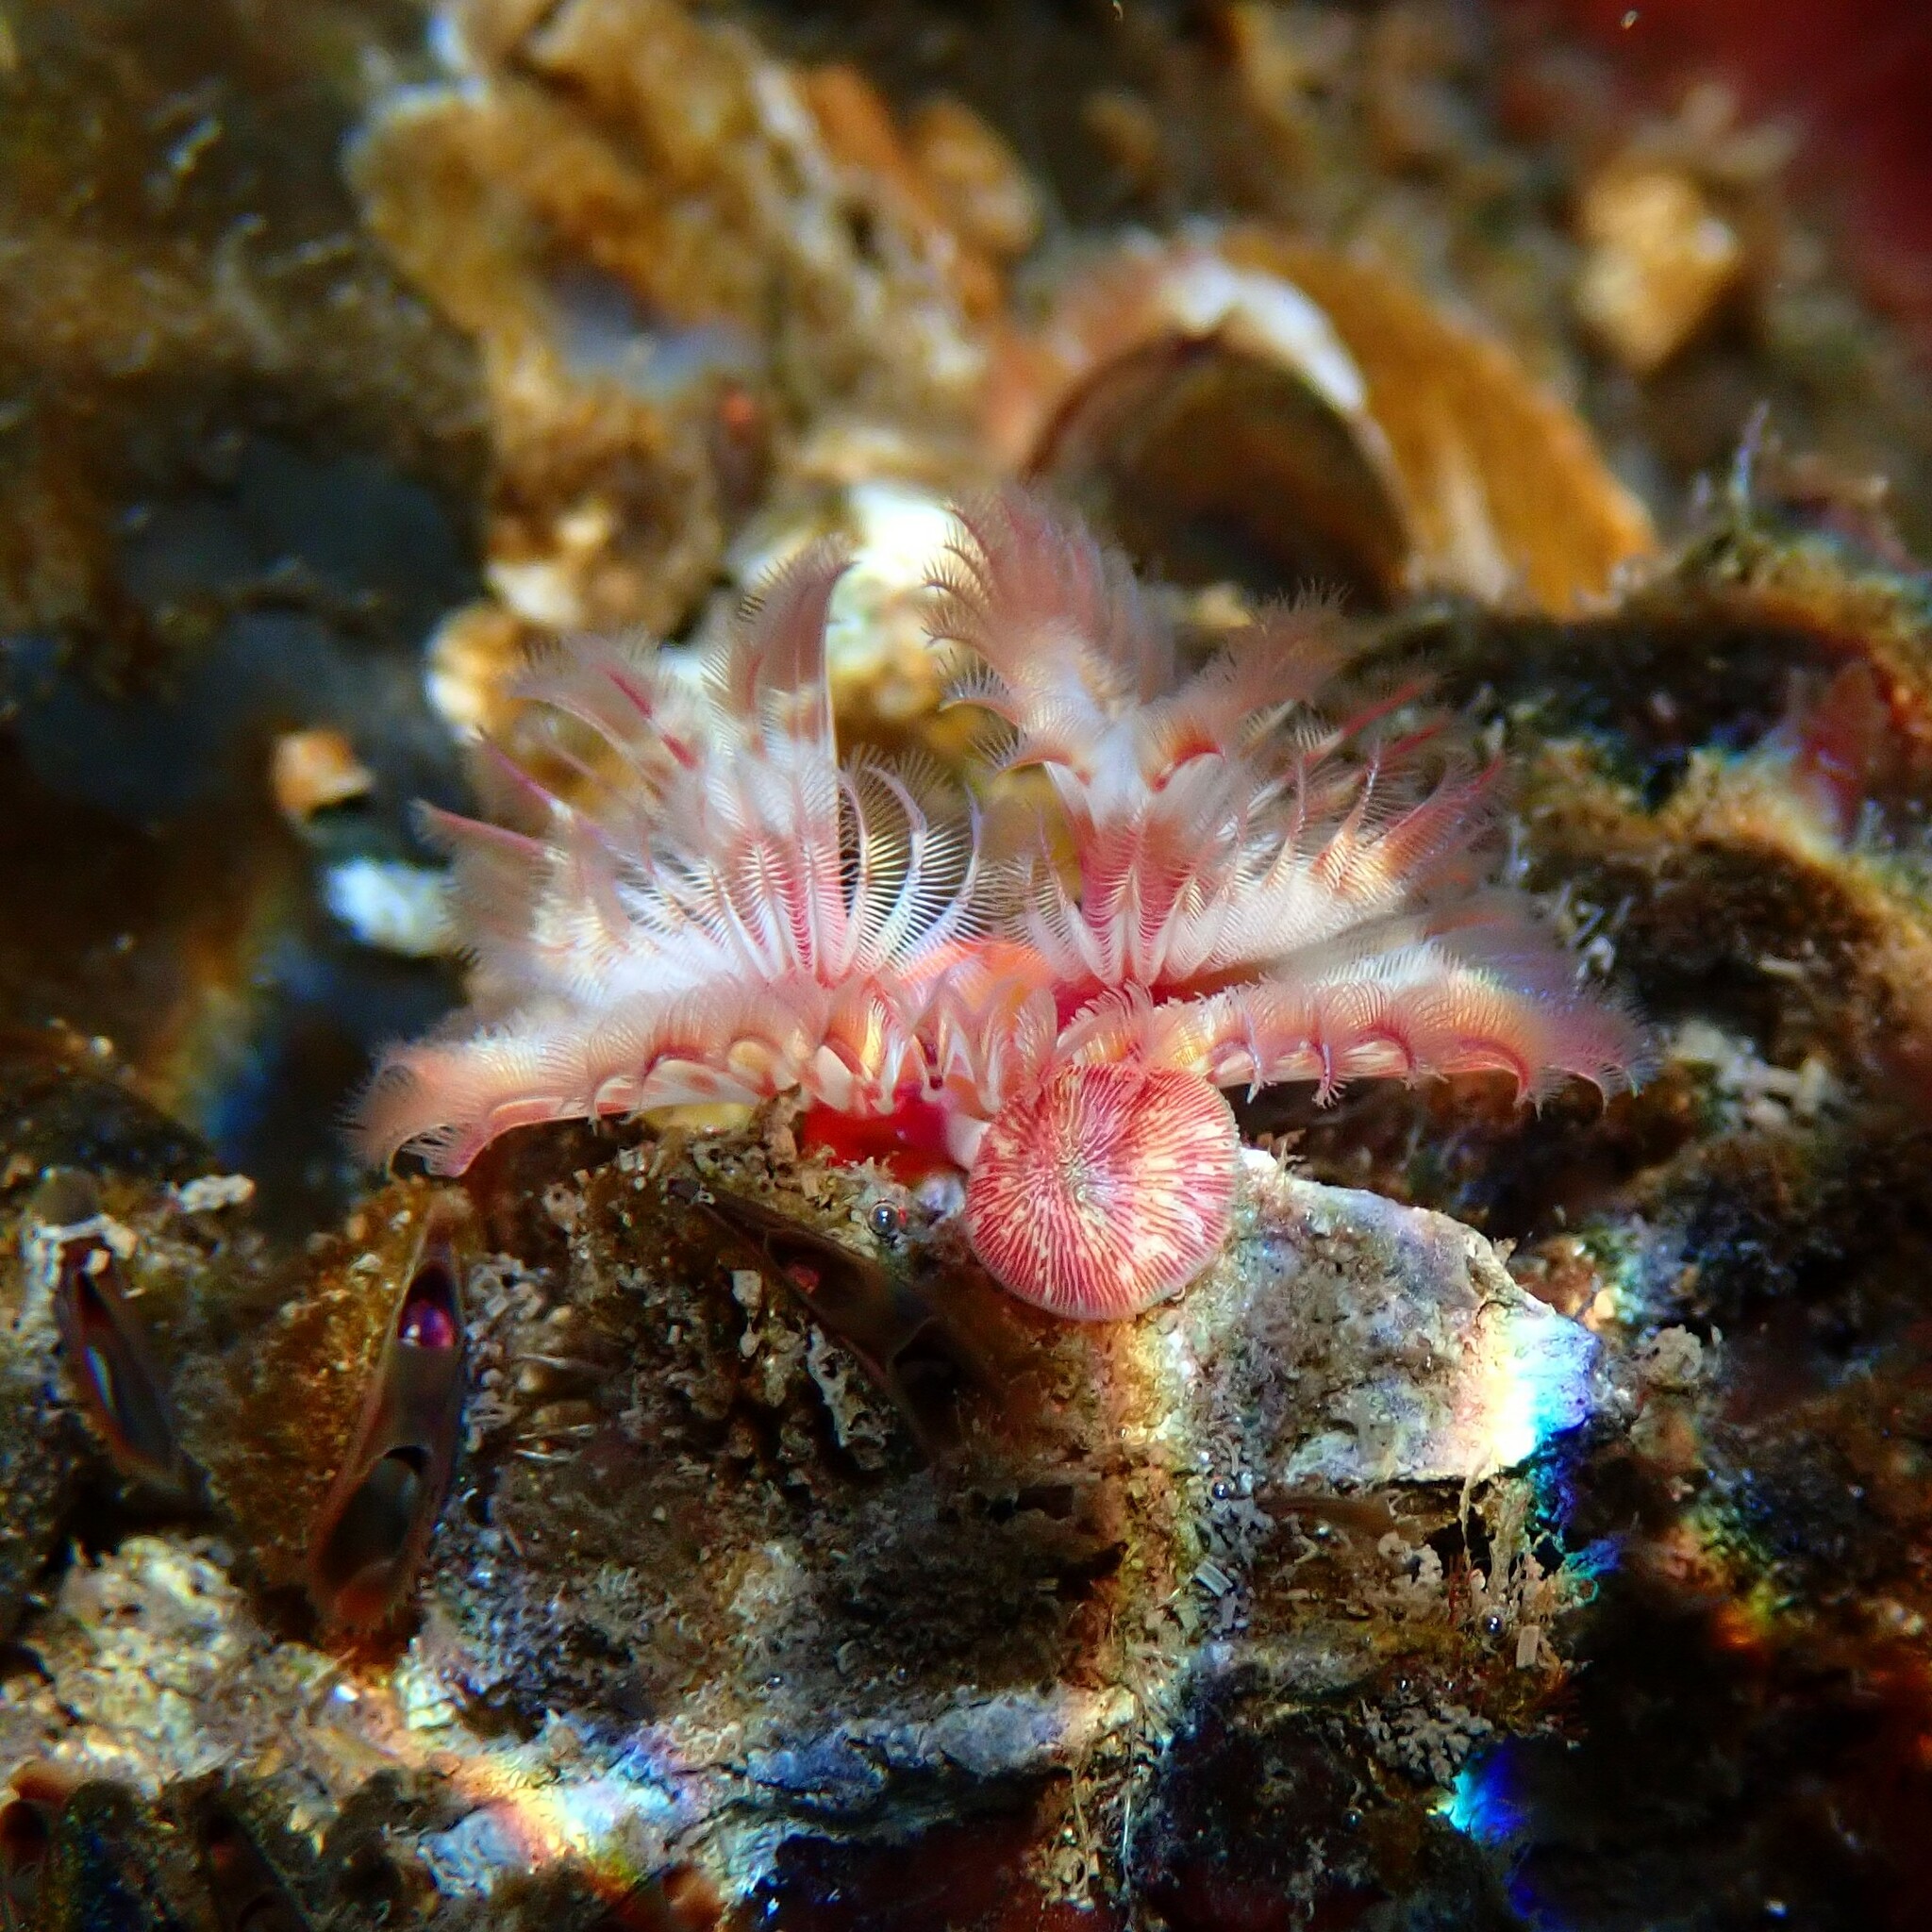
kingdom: Animalia
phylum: Annelida
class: Polychaeta
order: Sabellida
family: Serpulidae
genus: Serpula
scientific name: Serpula columbiana
